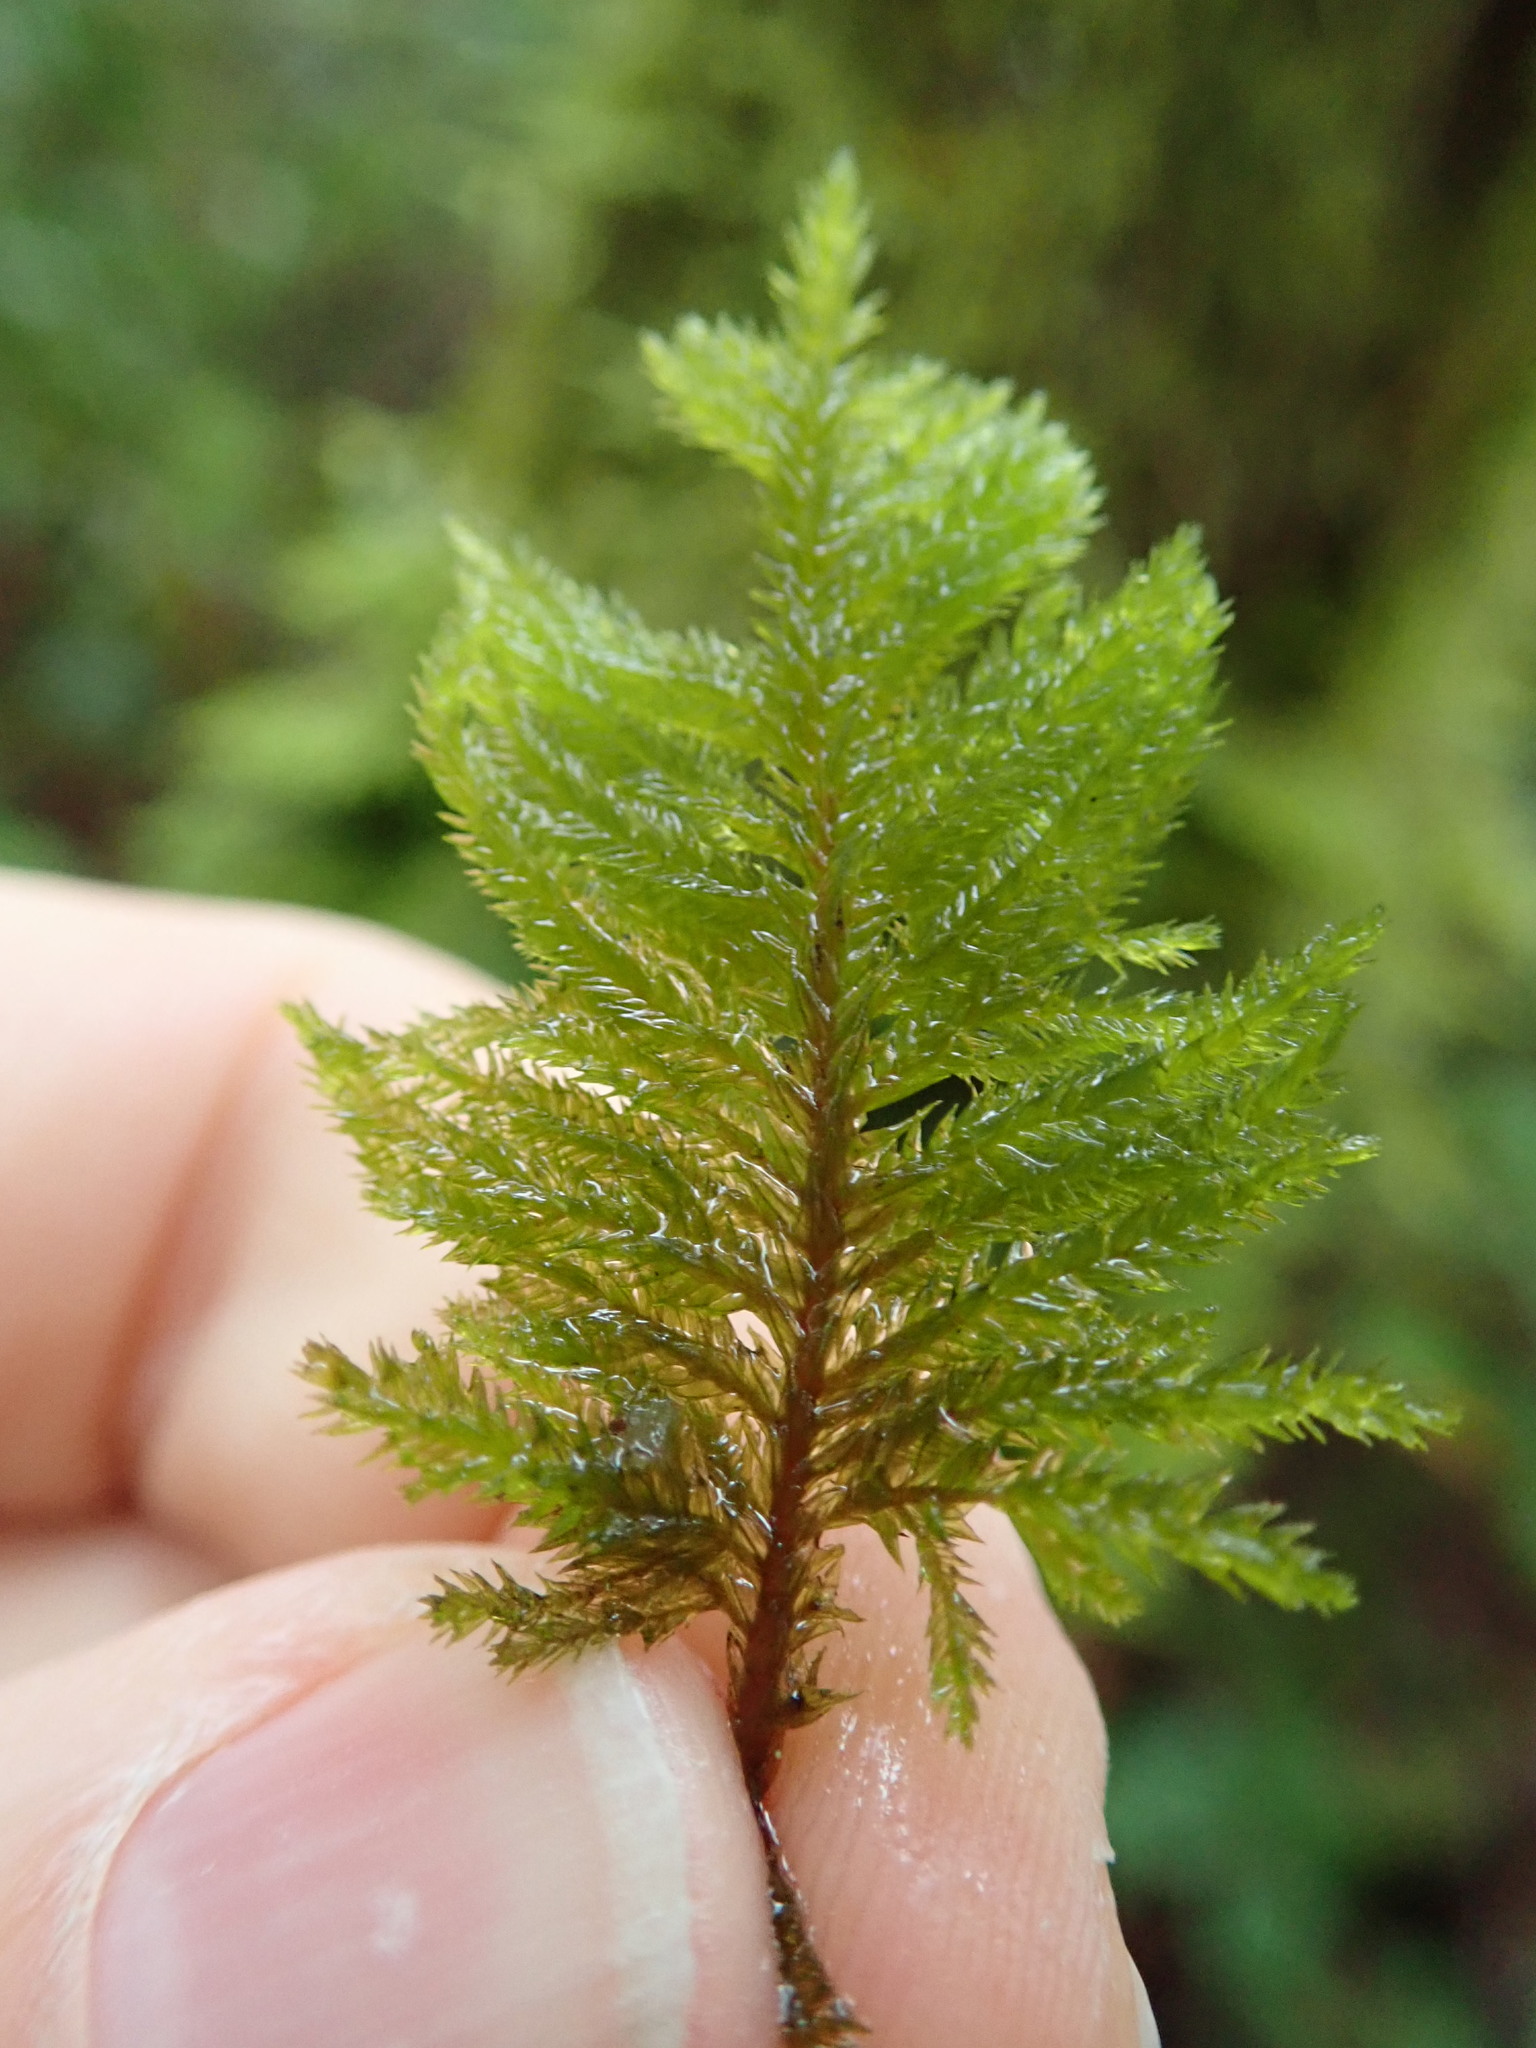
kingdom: Plantae
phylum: Bryophyta
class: Bryopsida
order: Hypnales
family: Cryphaeaceae
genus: Dendroalsia
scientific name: Dendroalsia abietina
